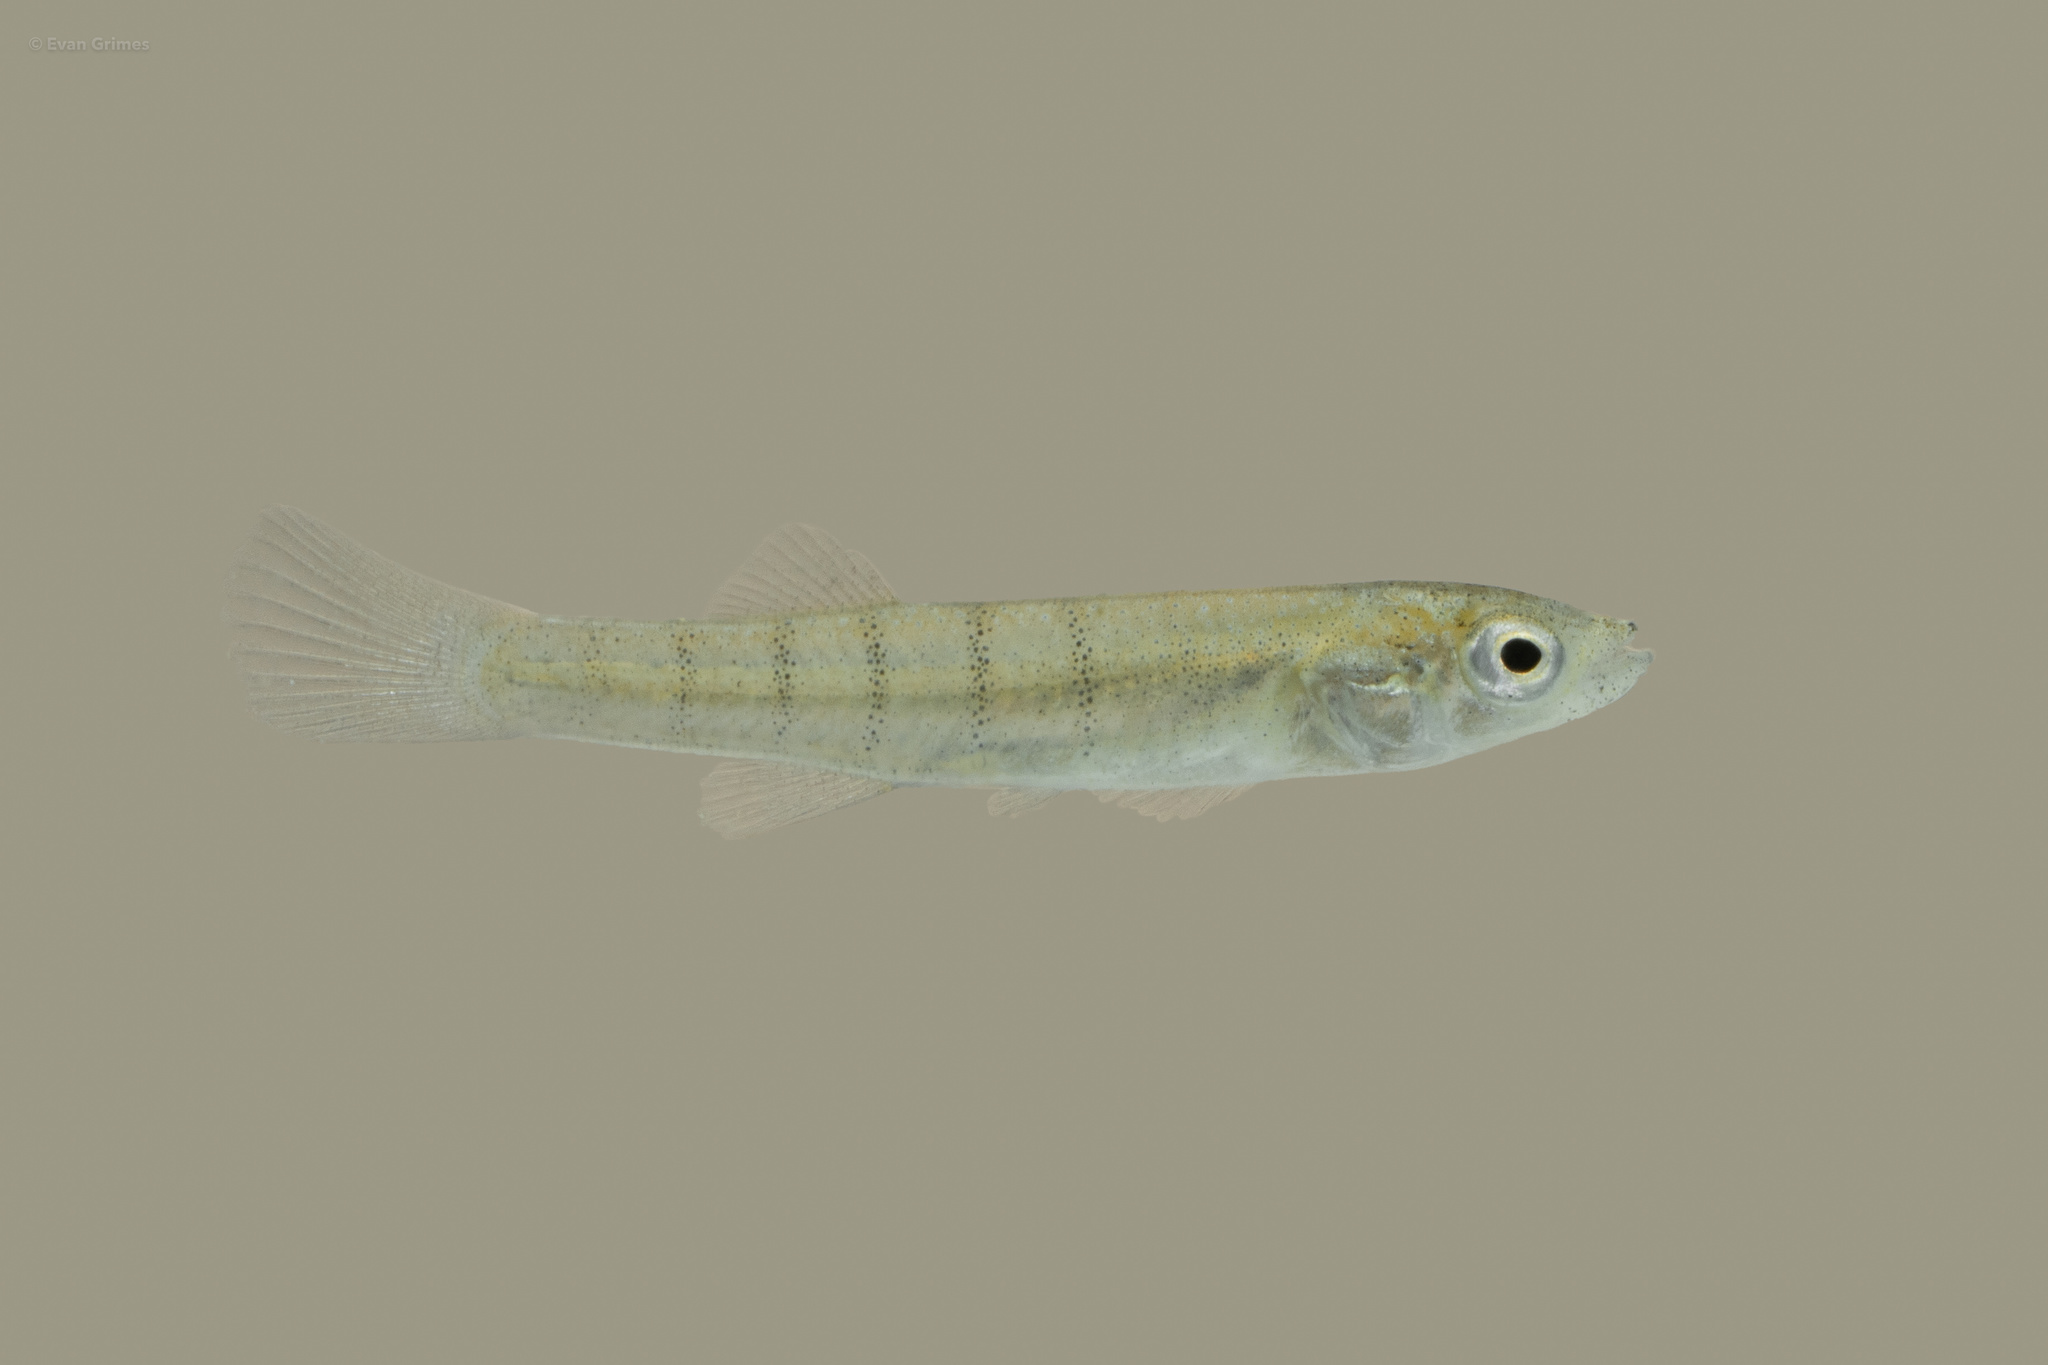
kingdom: Animalia
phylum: Chordata
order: Cyprinodontiformes
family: Fundulidae
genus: Fundulus
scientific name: Fundulus similis
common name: Longnose killifish
